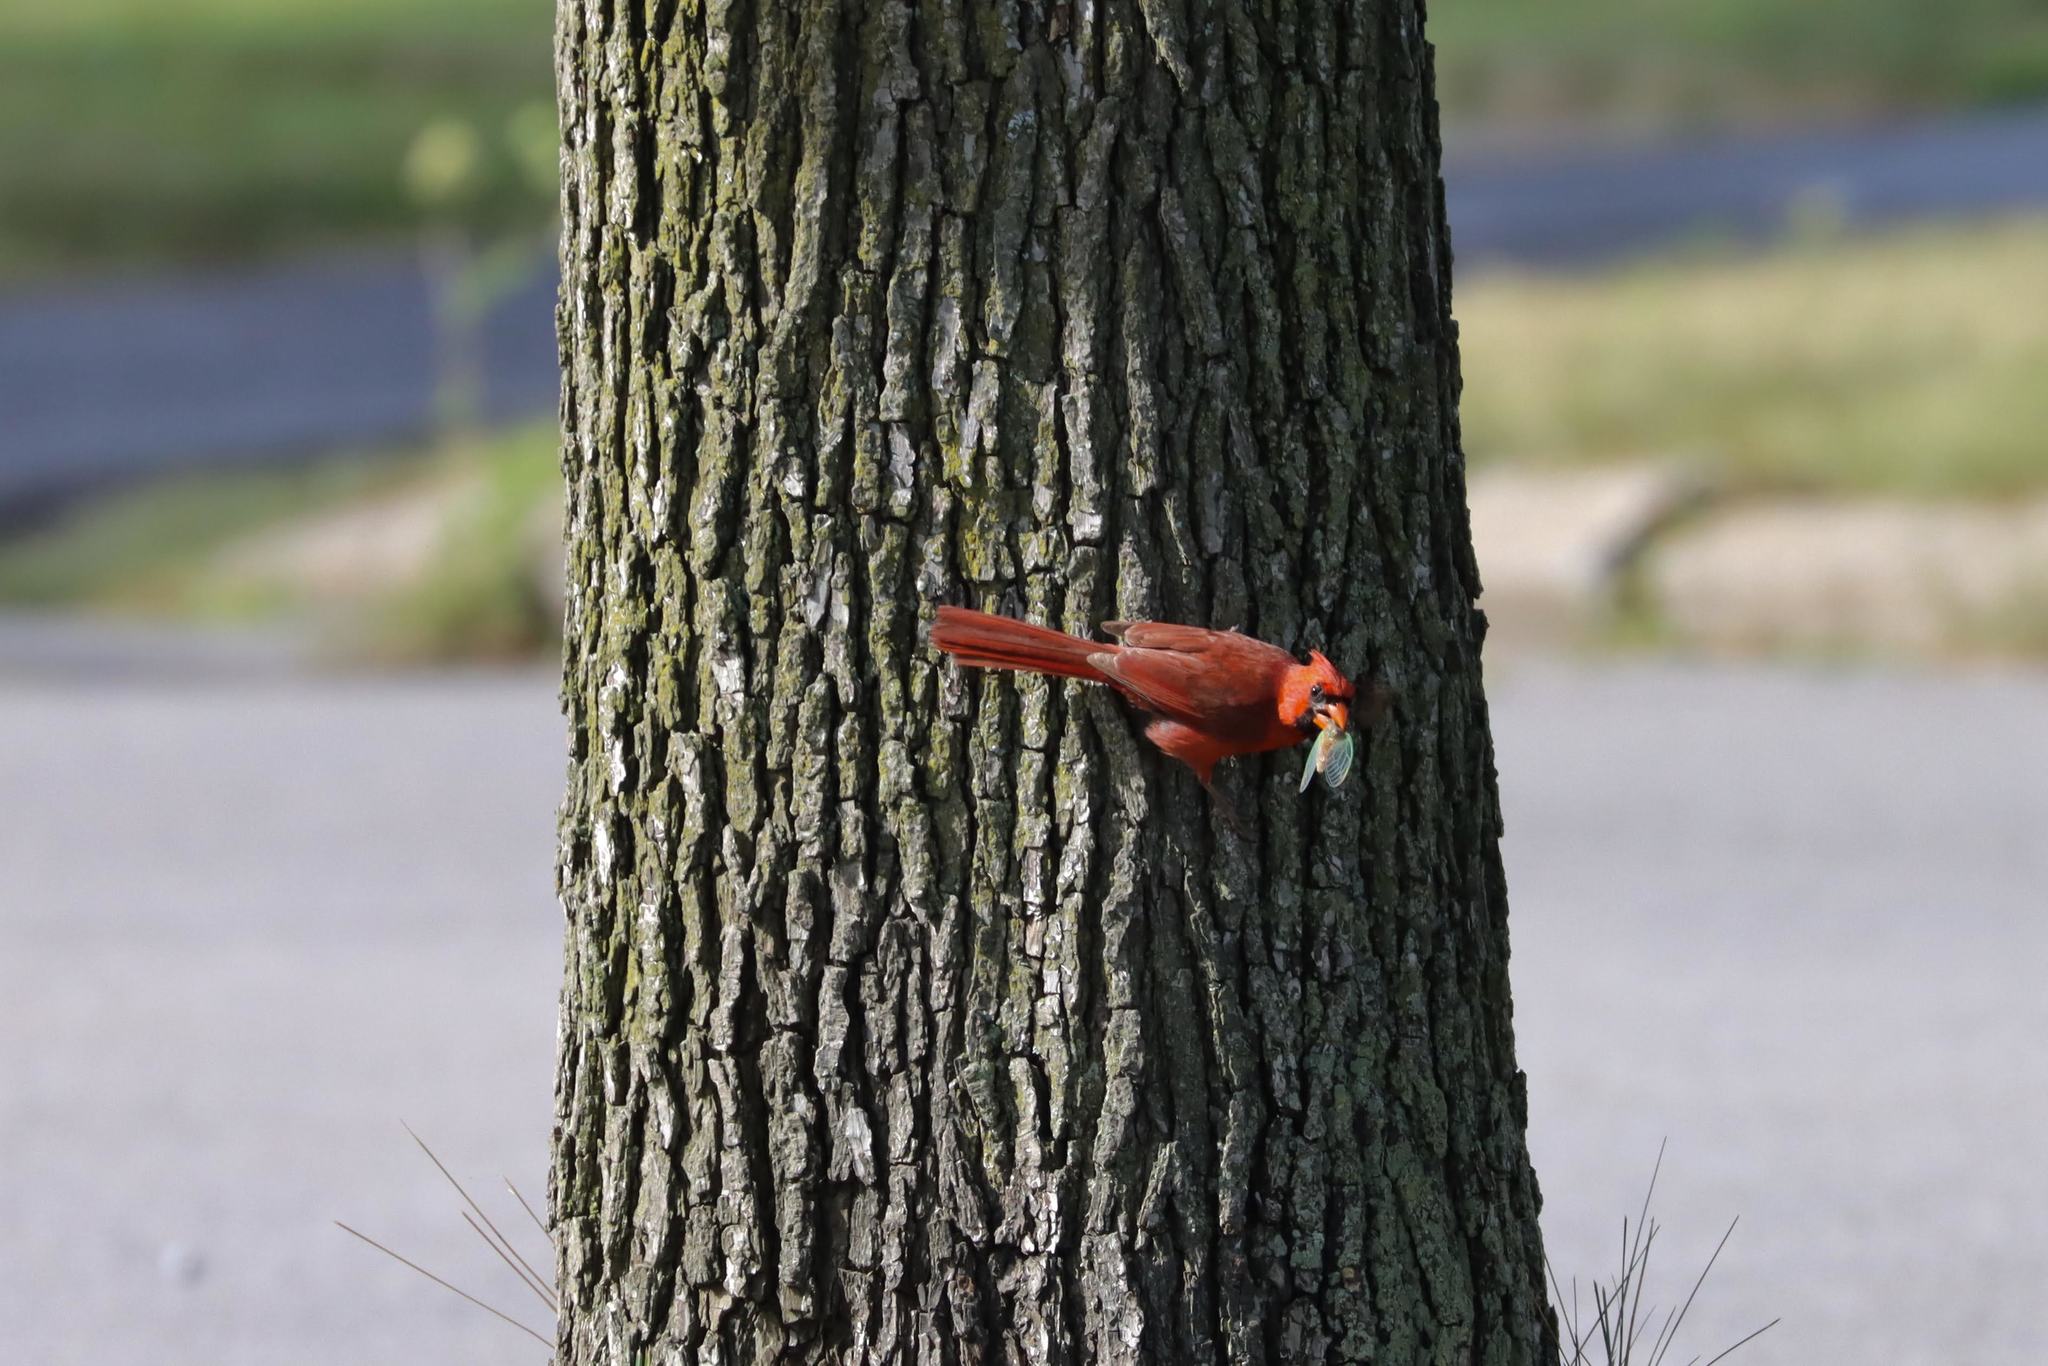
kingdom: Animalia
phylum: Chordata
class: Aves
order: Passeriformes
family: Cardinalidae
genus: Cardinalis
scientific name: Cardinalis cardinalis
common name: Northern cardinal
